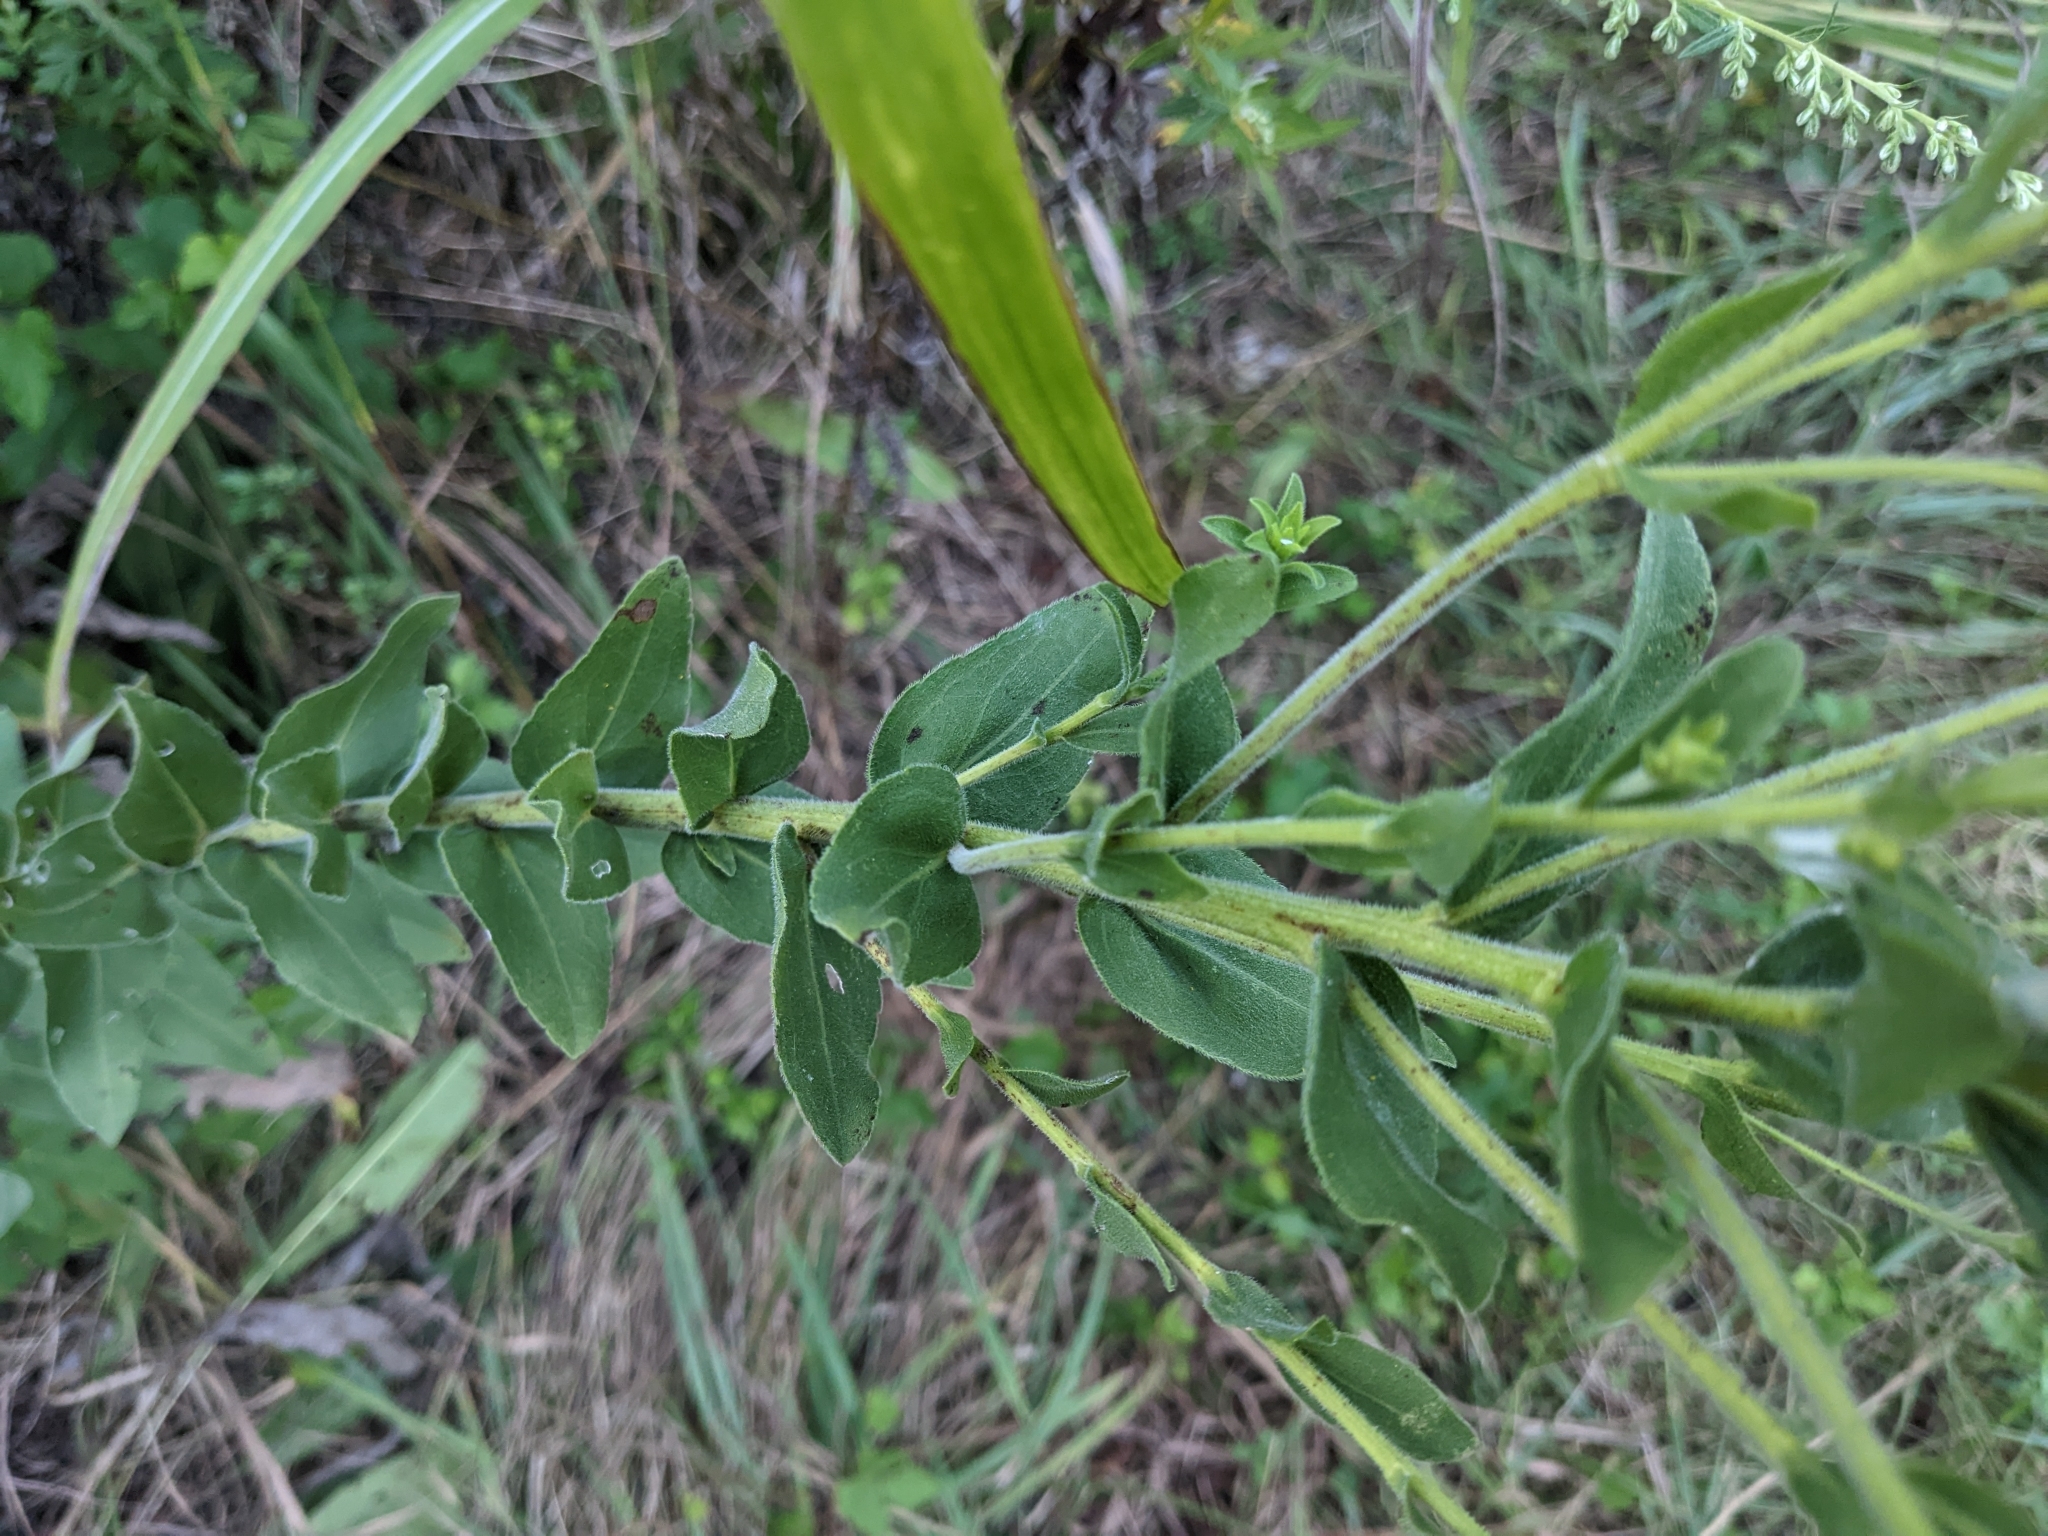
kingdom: Plantae
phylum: Tracheophyta
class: Magnoliopsida
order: Asterales
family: Asteraceae
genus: Solidago
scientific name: Solidago rigida
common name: Rigid goldenrod
